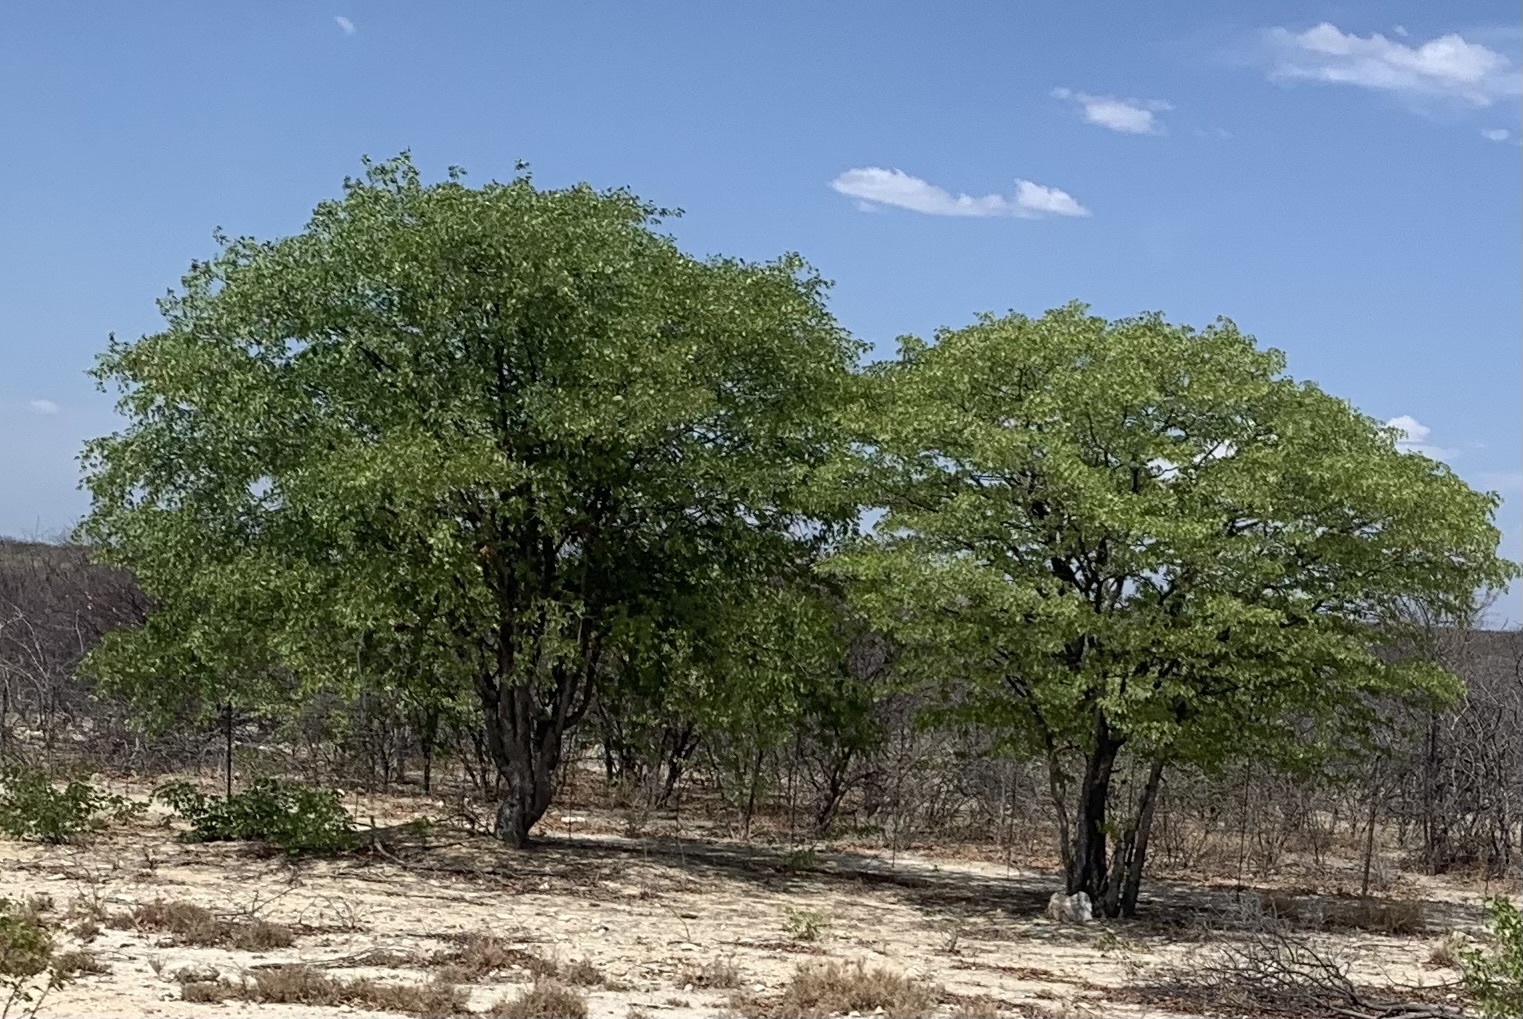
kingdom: Plantae
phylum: Tracheophyta
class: Magnoliopsida
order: Fabales
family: Fabaceae
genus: Colophospermum
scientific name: Colophospermum mopane
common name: Mopane
